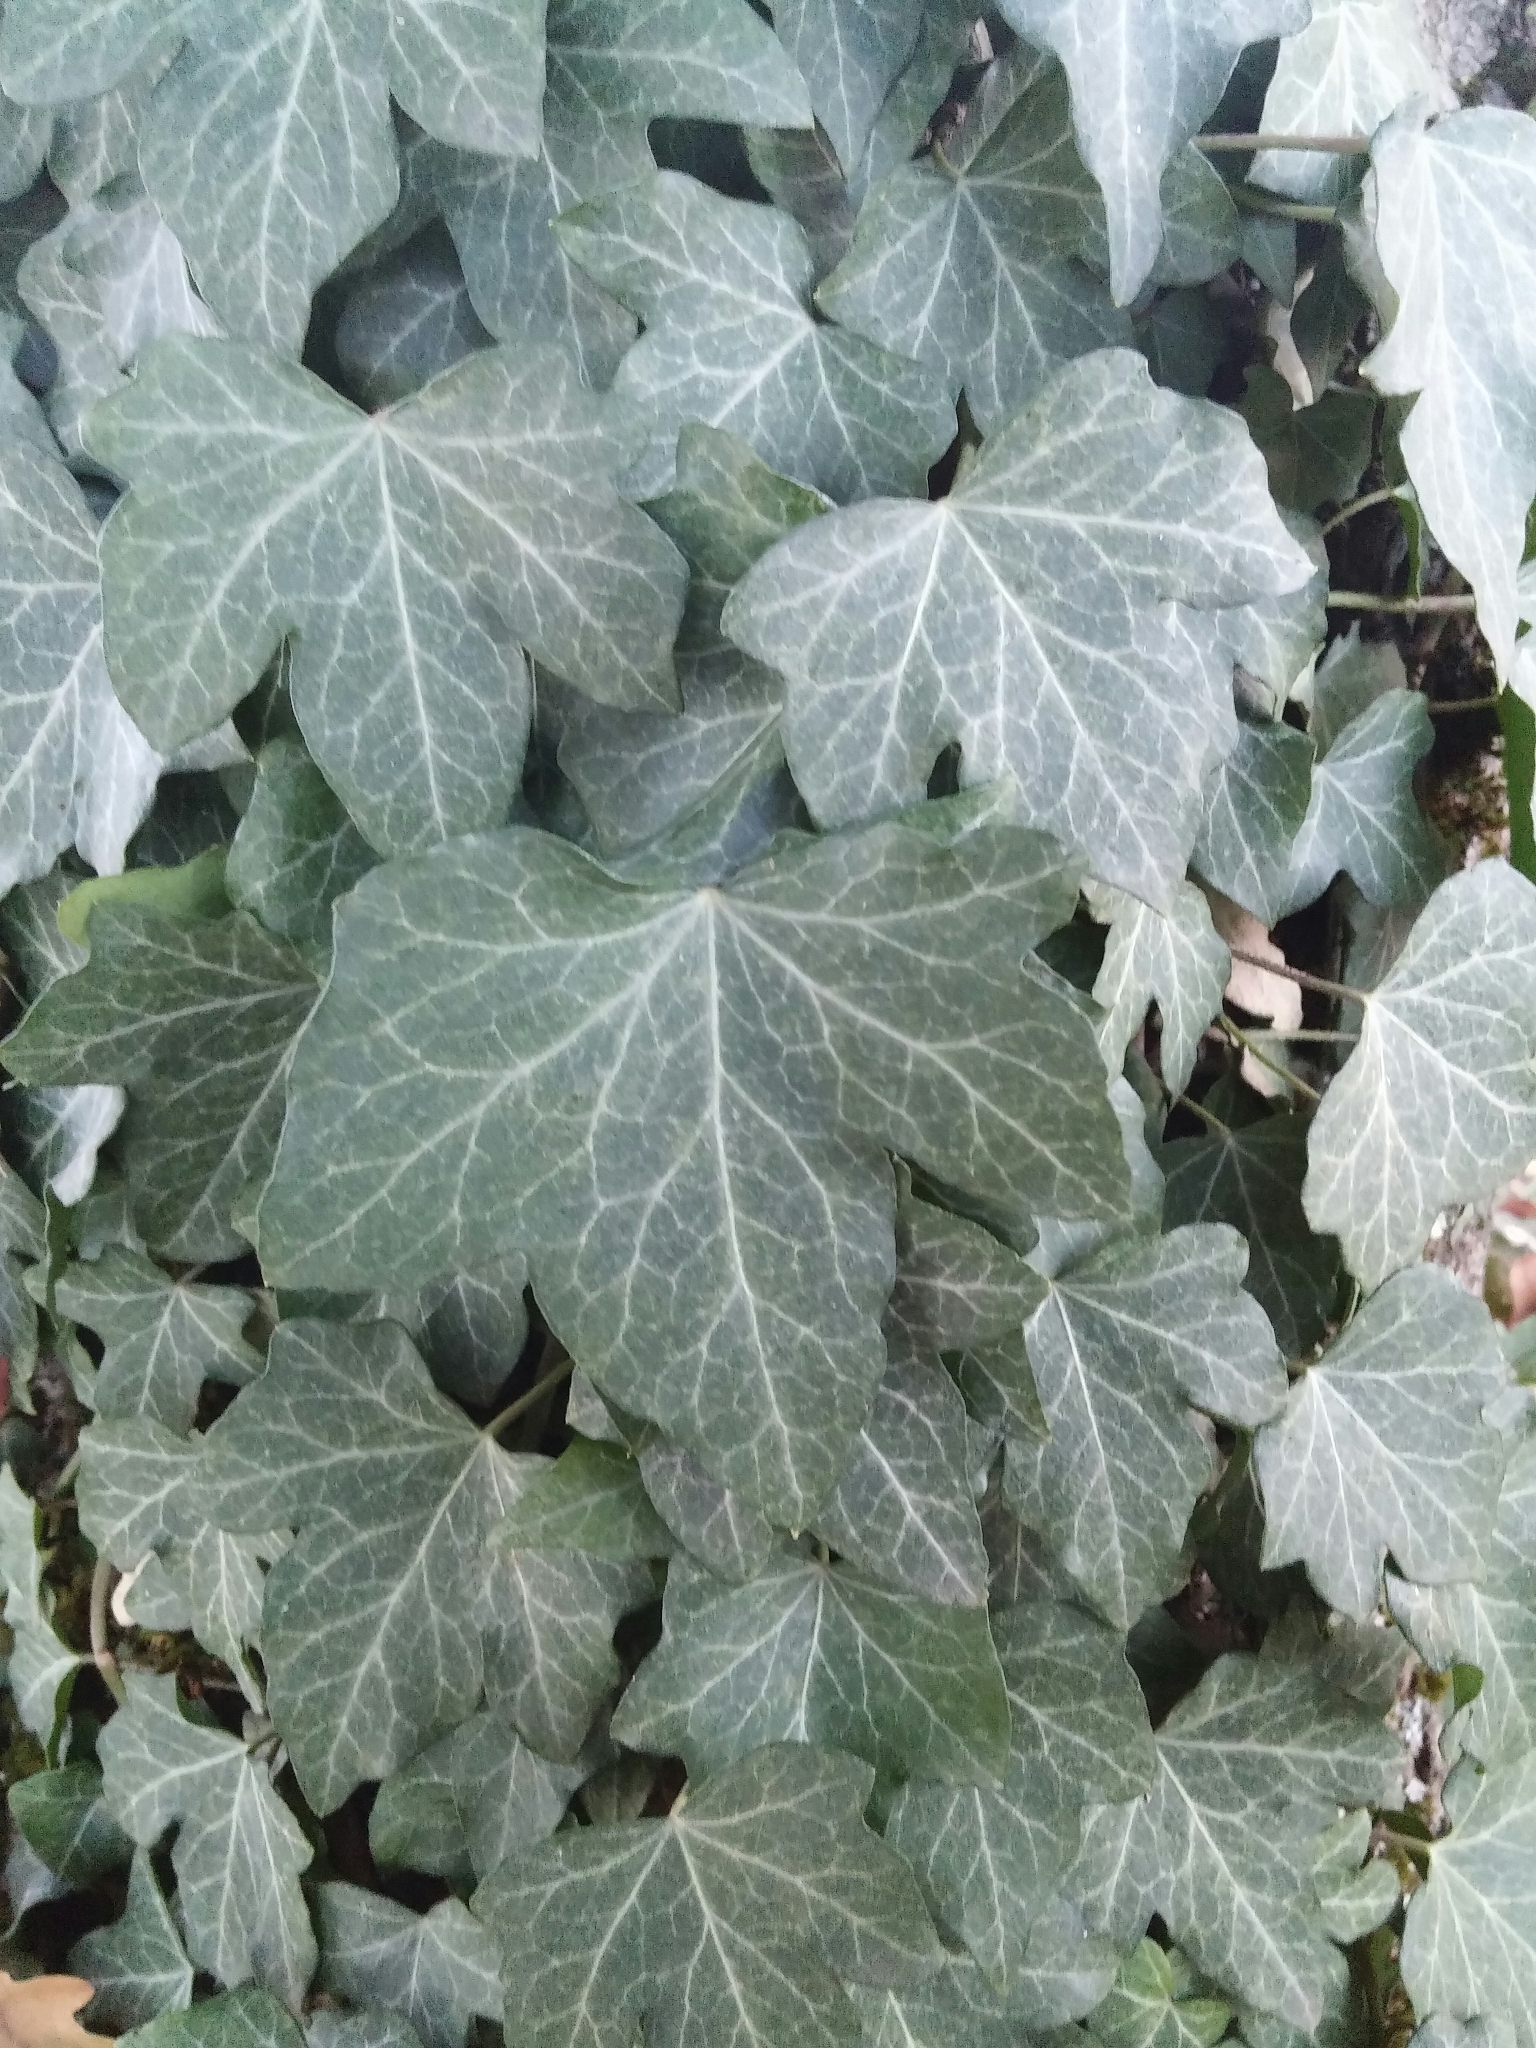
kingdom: Plantae
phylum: Tracheophyta
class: Magnoliopsida
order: Apiales
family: Araliaceae
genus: Hedera
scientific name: Hedera helix
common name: Ivy
